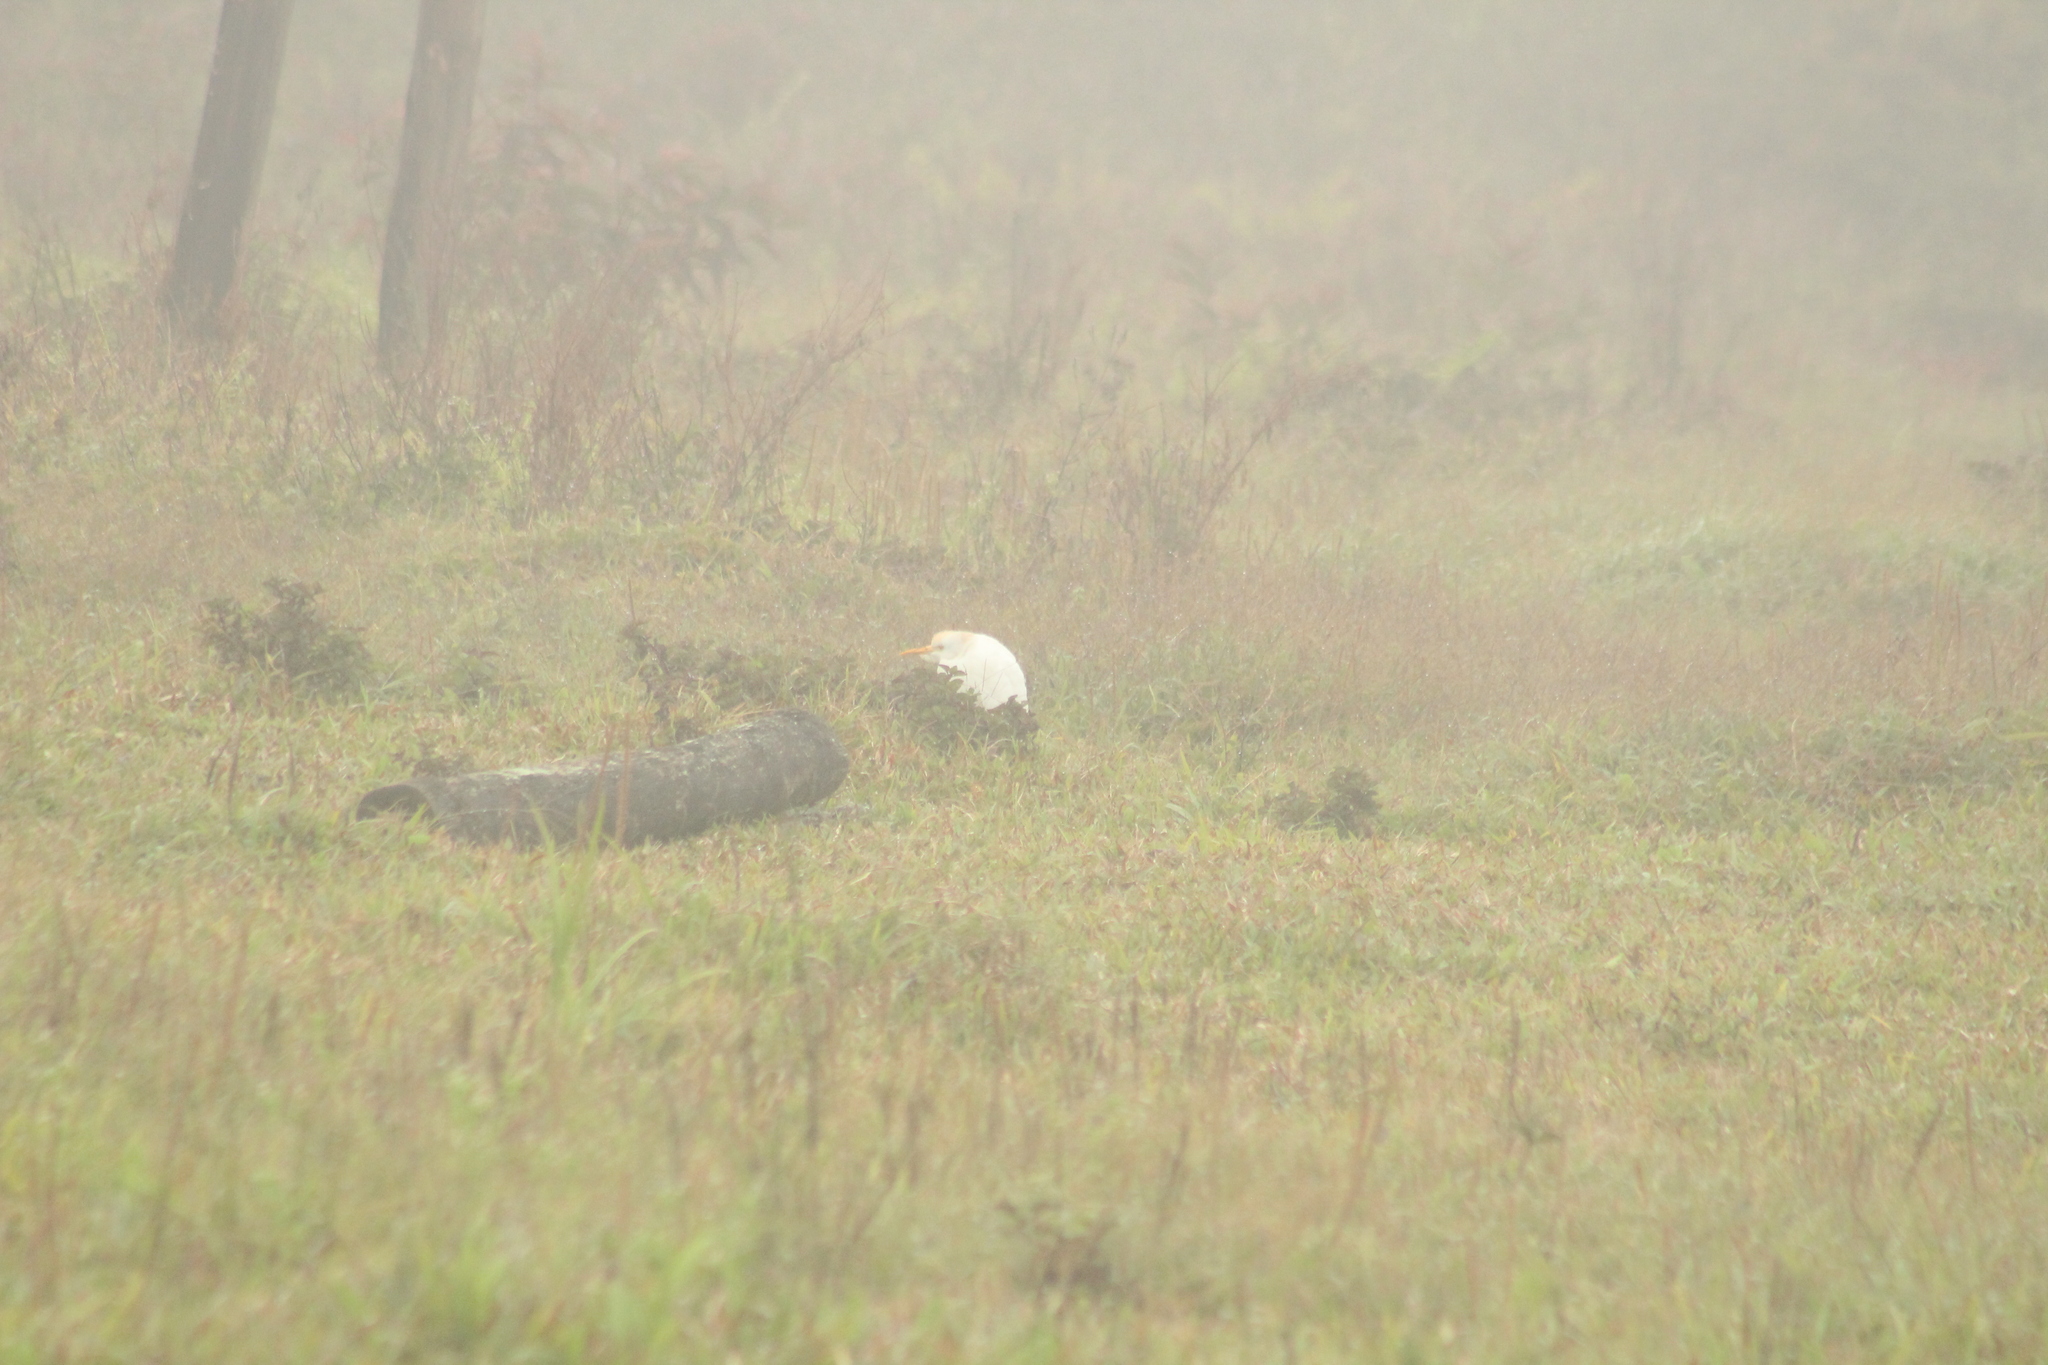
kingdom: Animalia
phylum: Chordata
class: Aves
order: Pelecaniformes
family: Ardeidae
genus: Bubulcus
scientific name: Bubulcus ibis
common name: Cattle egret
